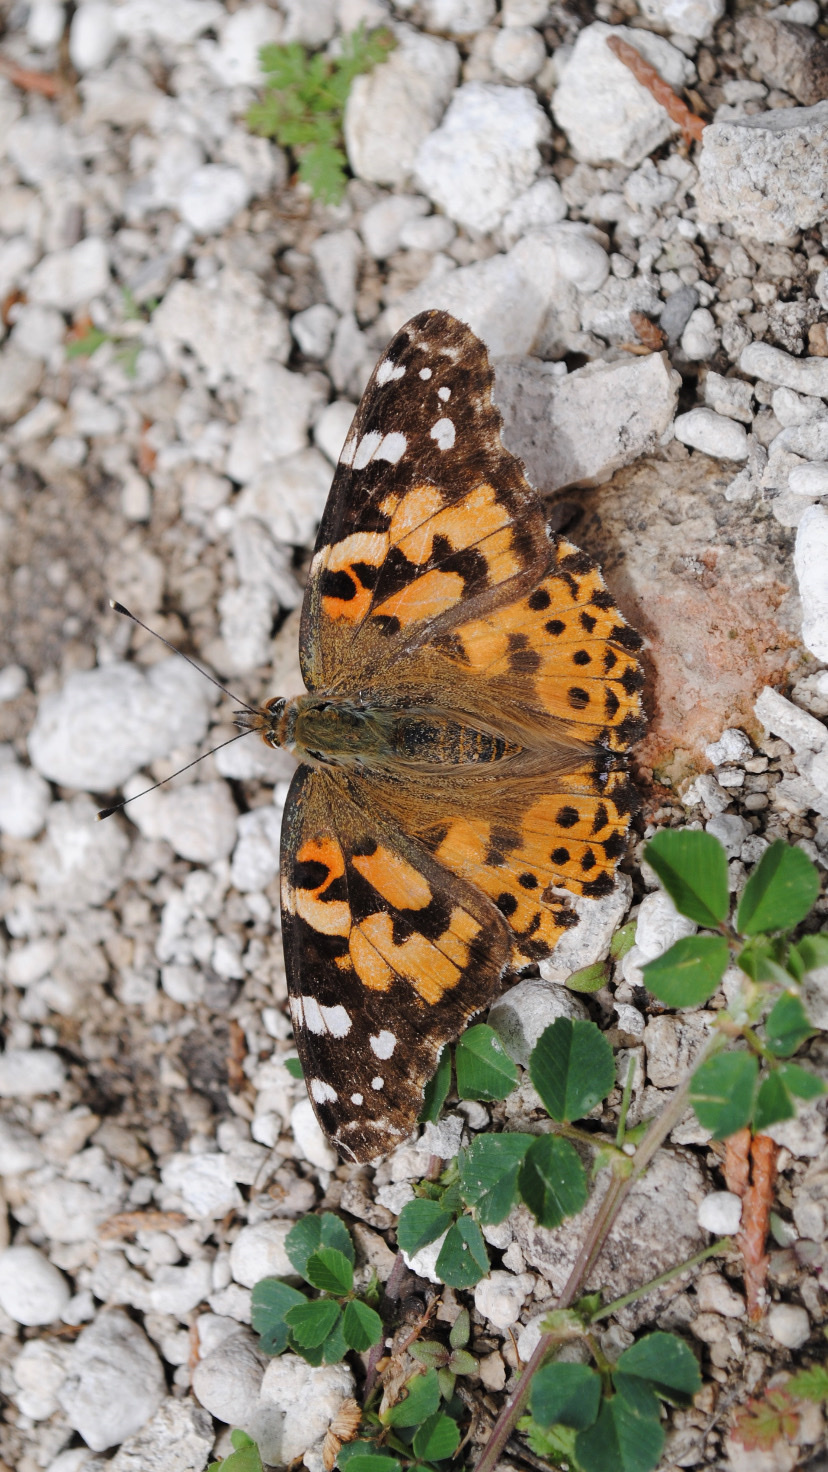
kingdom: Animalia
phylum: Arthropoda
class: Insecta
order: Lepidoptera
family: Nymphalidae
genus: Vanessa
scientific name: Vanessa cardui
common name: Painted lady
